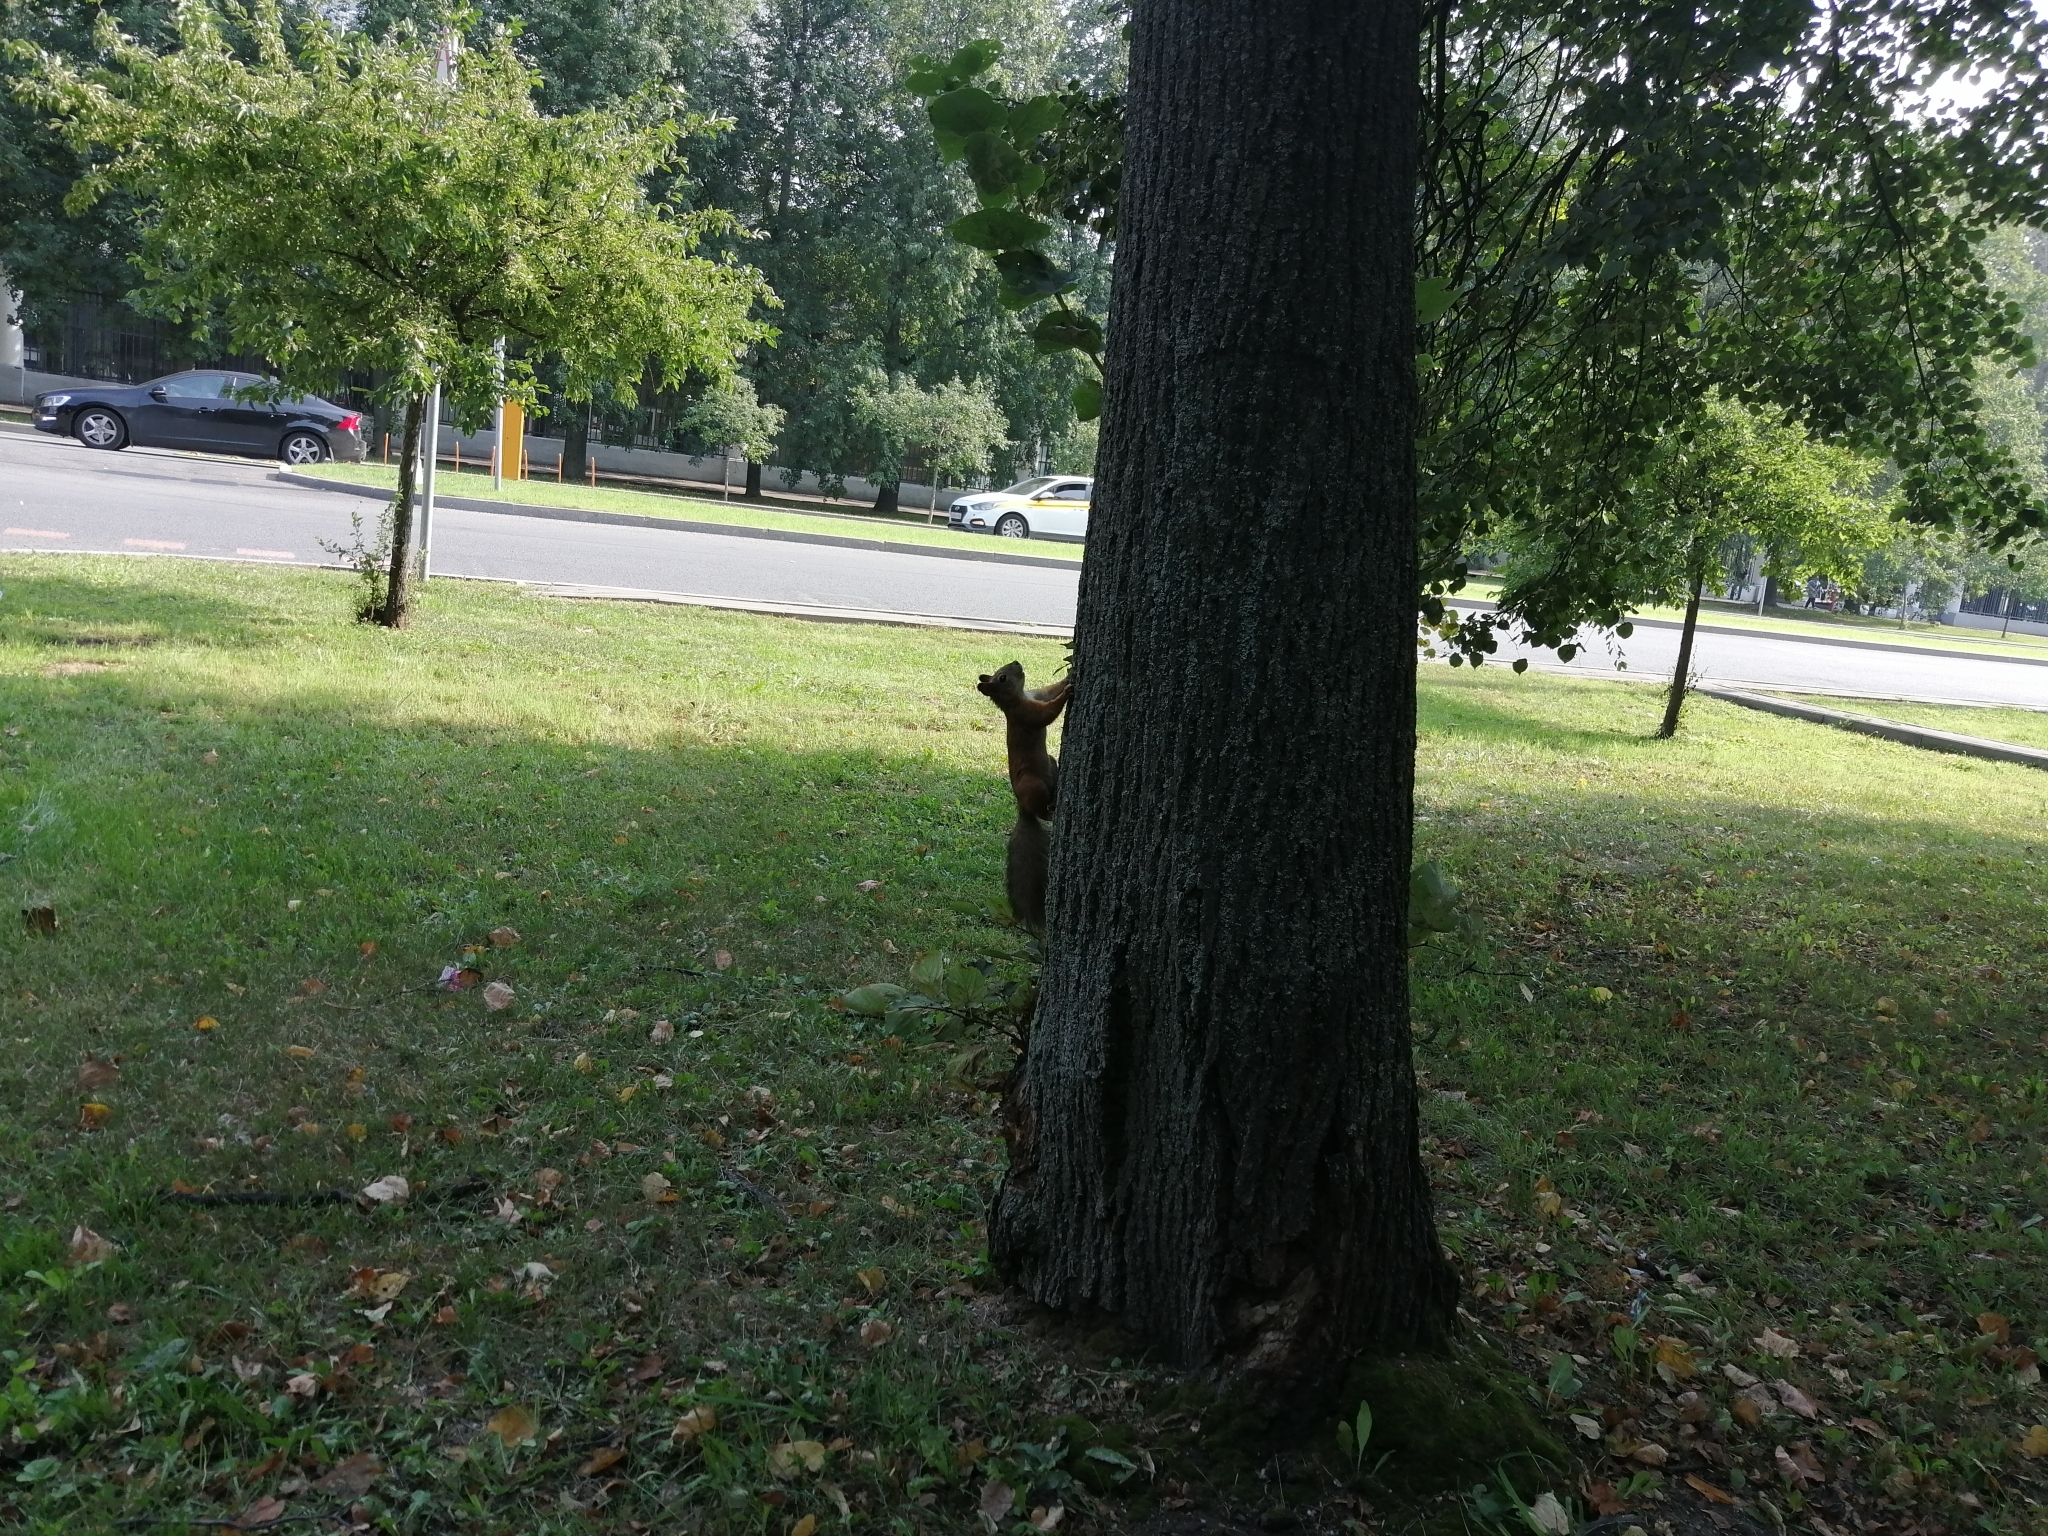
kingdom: Animalia
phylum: Chordata
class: Mammalia
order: Rodentia
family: Sciuridae
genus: Sciurus
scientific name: Sciurus vulgaris
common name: Eurasian red squirrel
